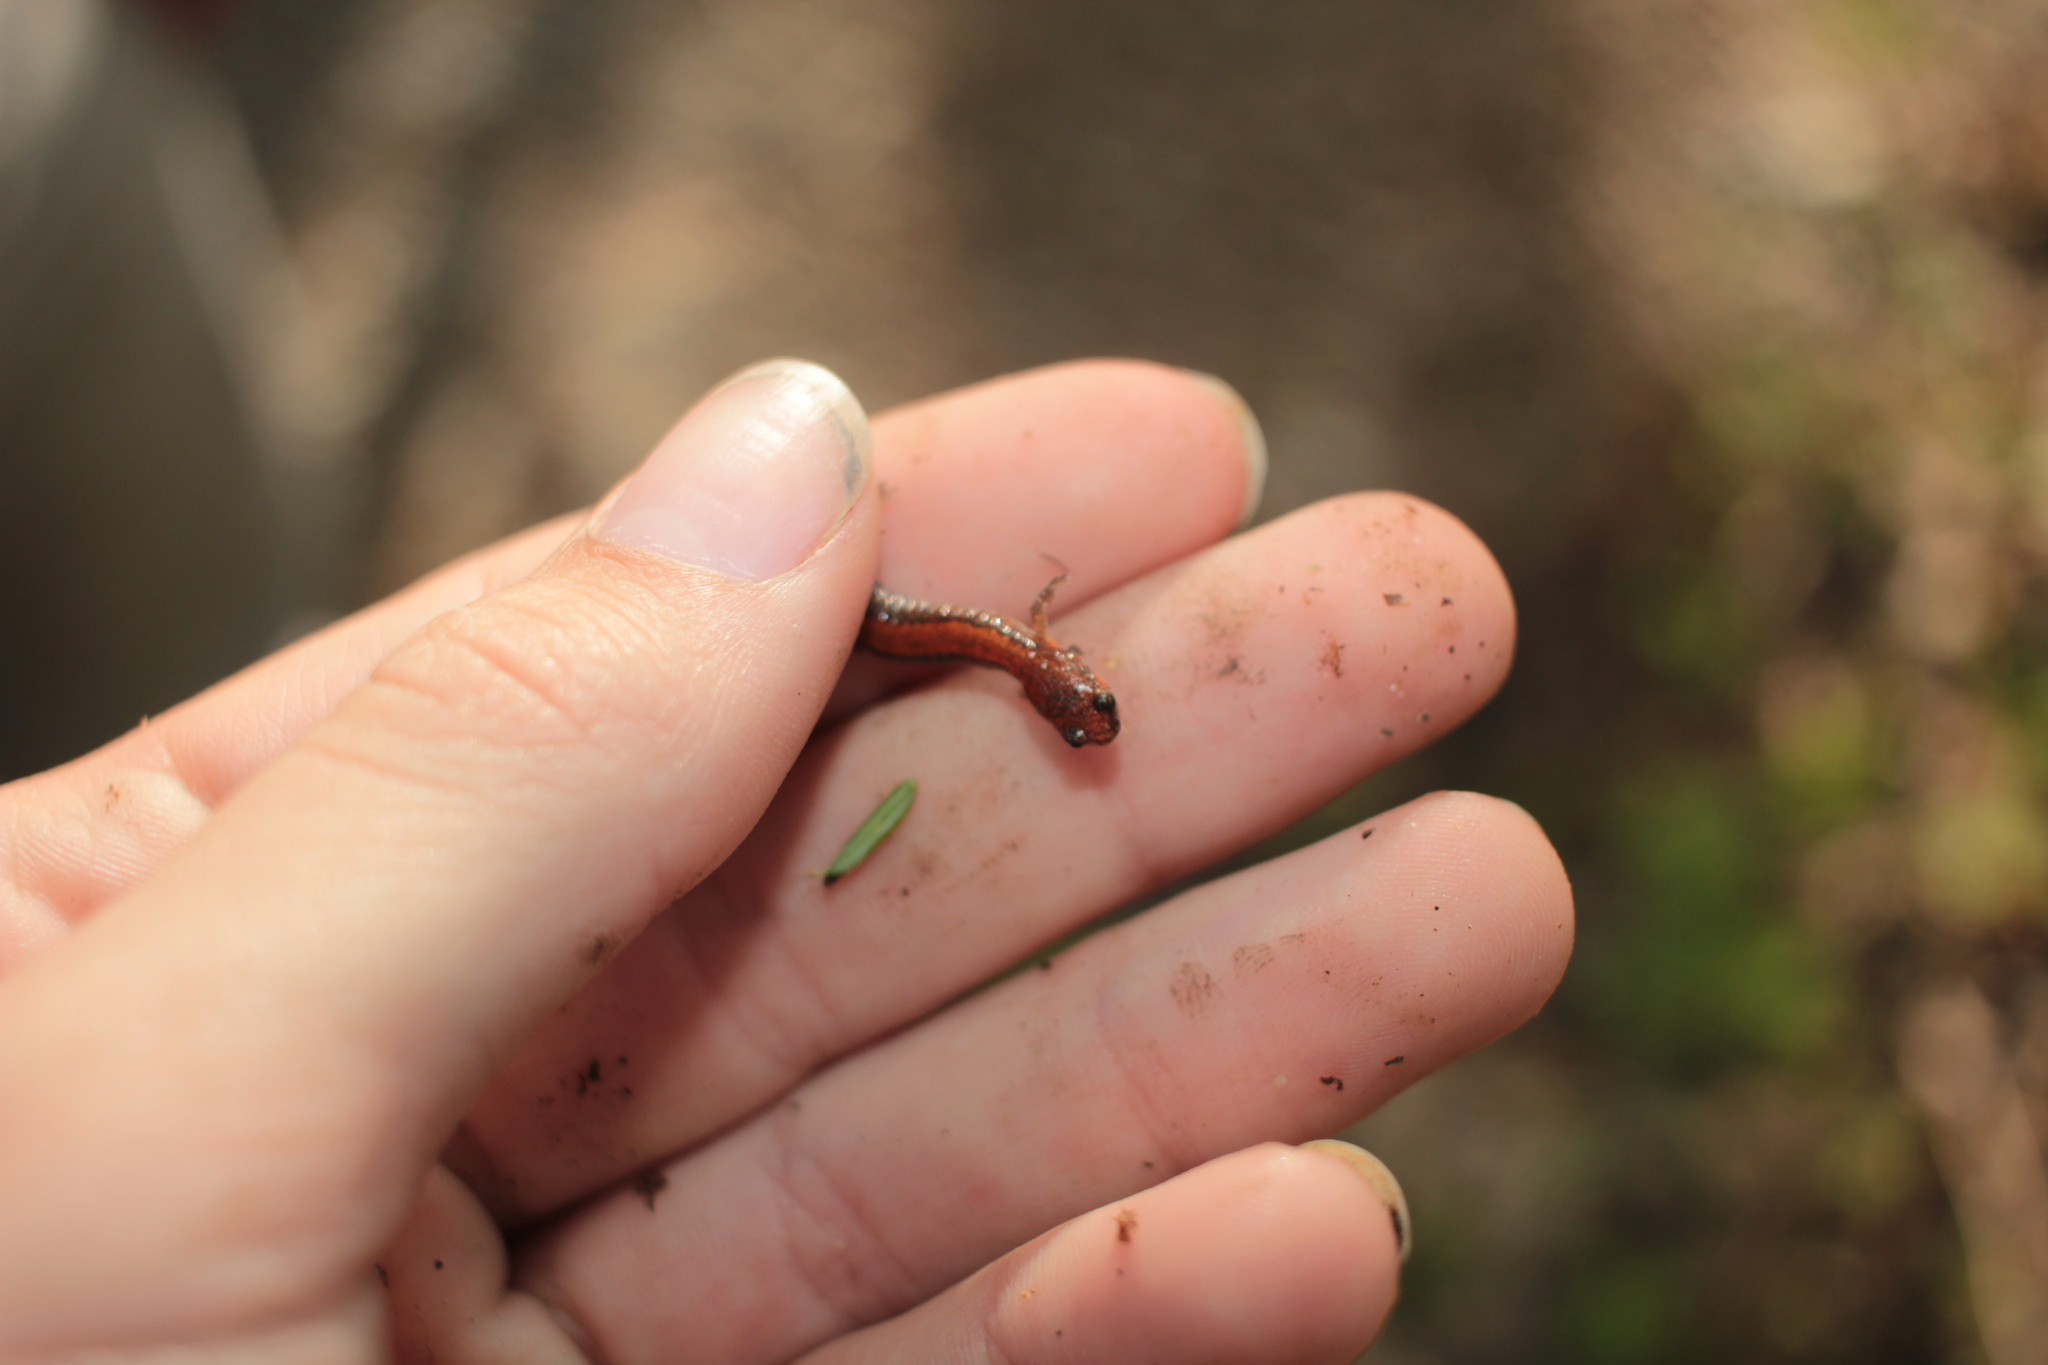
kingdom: Animalia
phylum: Chordata
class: Amphibia
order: Caudata
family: Plethodontidae
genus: Plethodon
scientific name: Plethodon serratus
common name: Southern red-backed salamander
